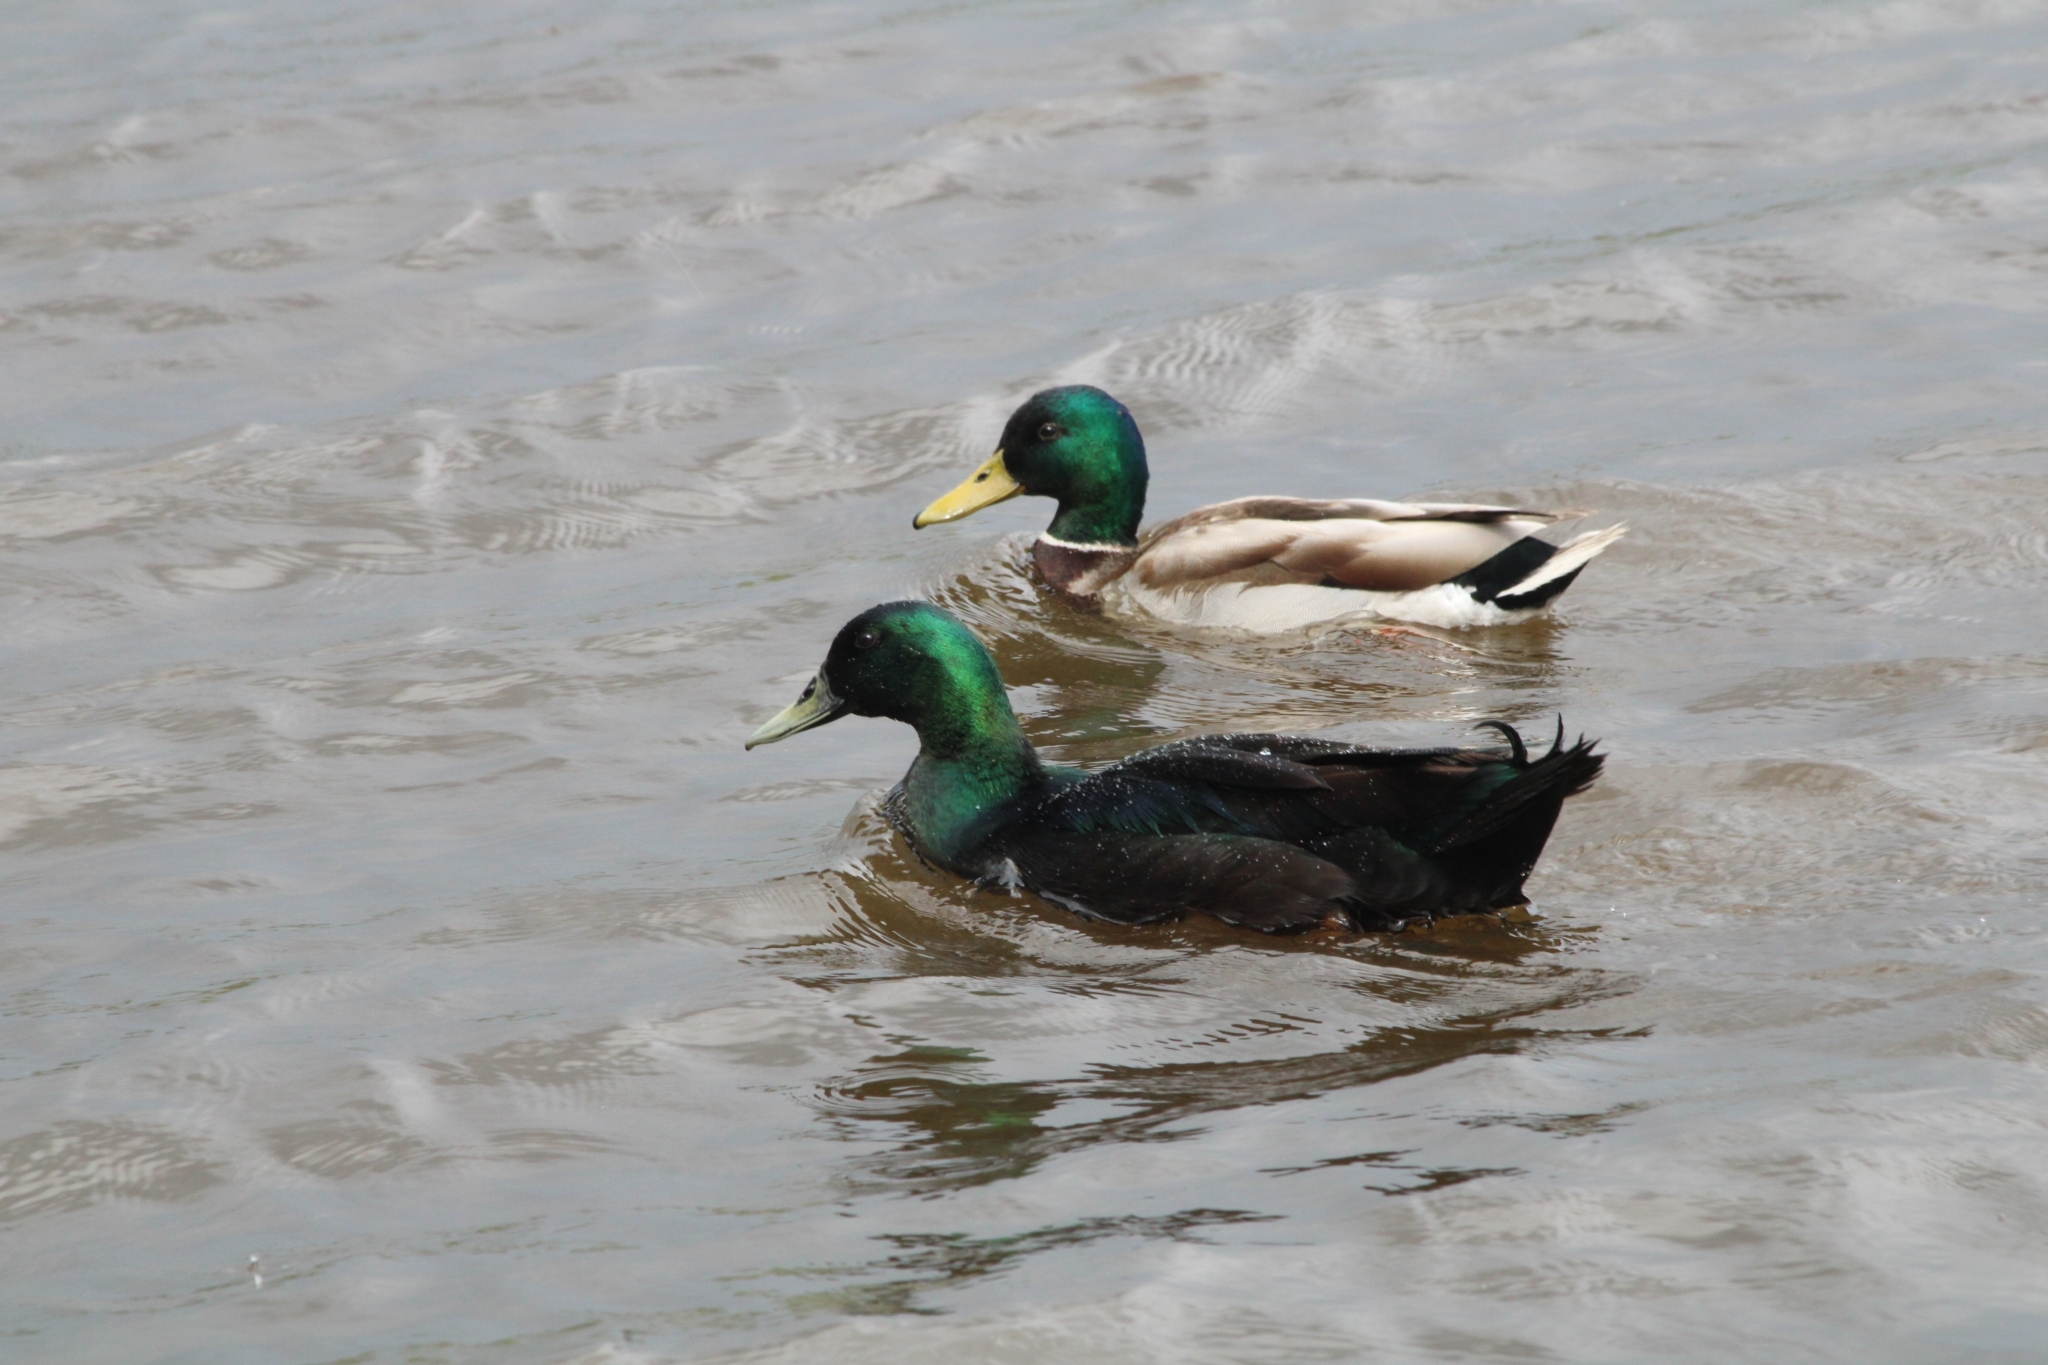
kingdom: Animalia
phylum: Chordata
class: Aves
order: Anseriformes
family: Anatidae
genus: Anas
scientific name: Anas platyrhynchos
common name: Mallard
